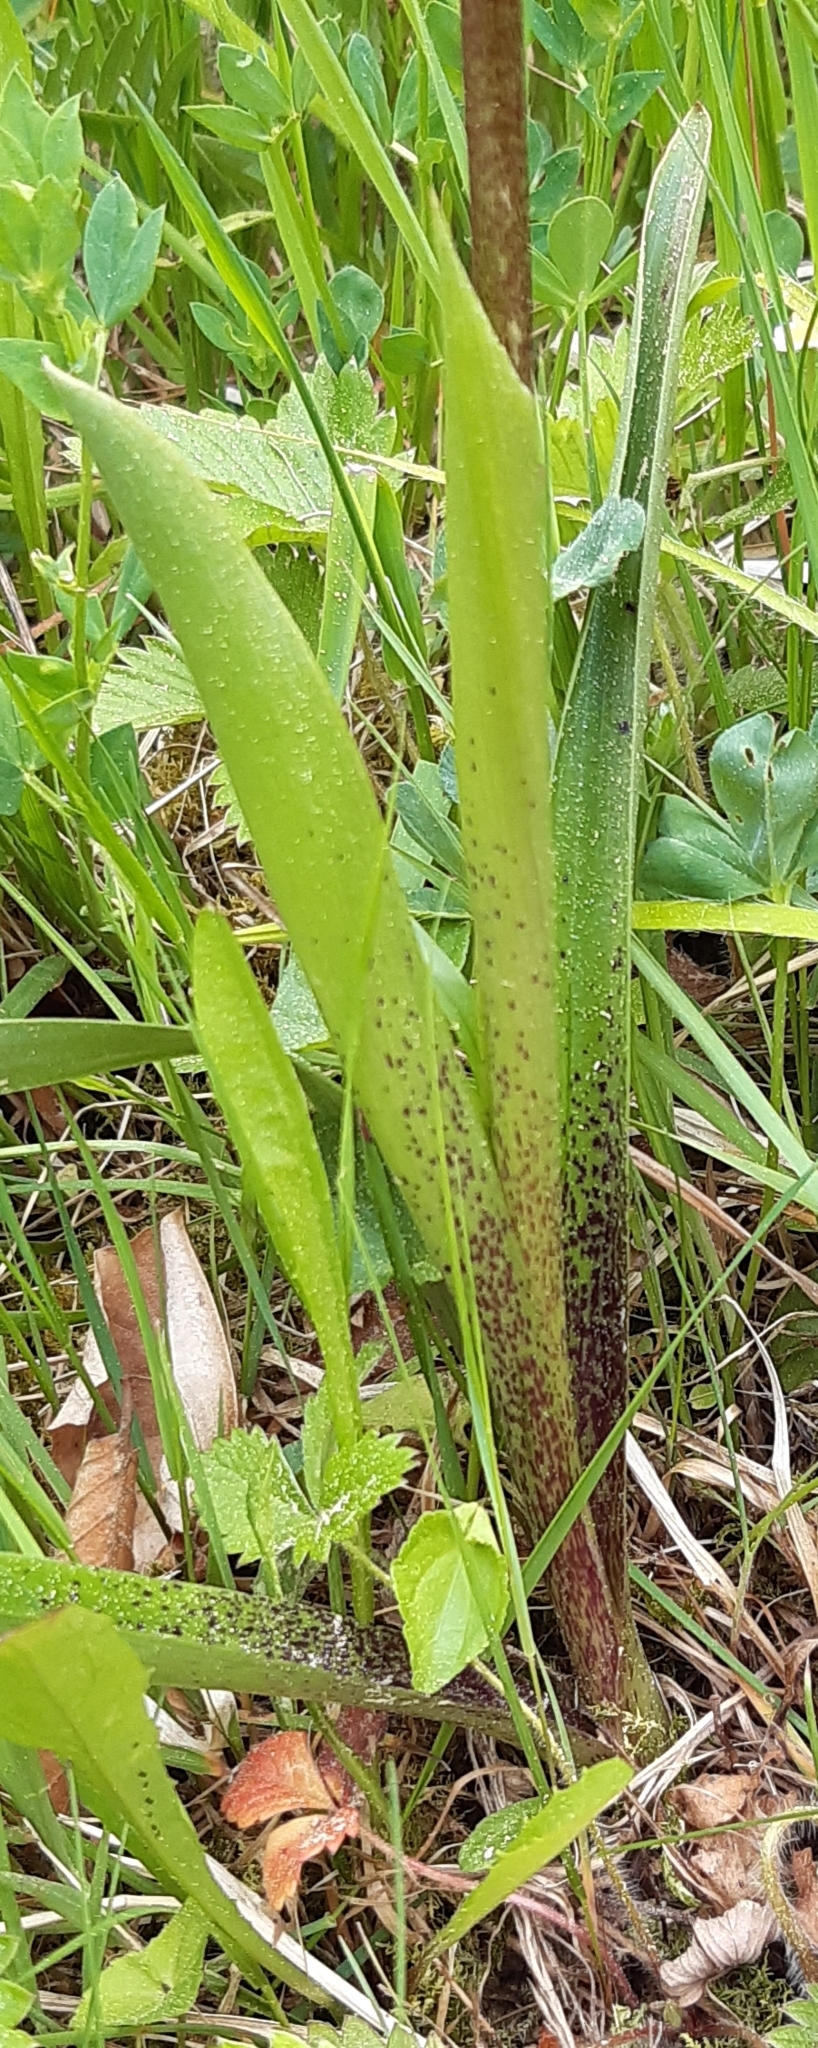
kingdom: Plantae
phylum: Tracheophyta
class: Liliopsida
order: Asparagales
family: Orchidaceae
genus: Orchis
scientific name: Orchis mascula
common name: Early-purple orchid
